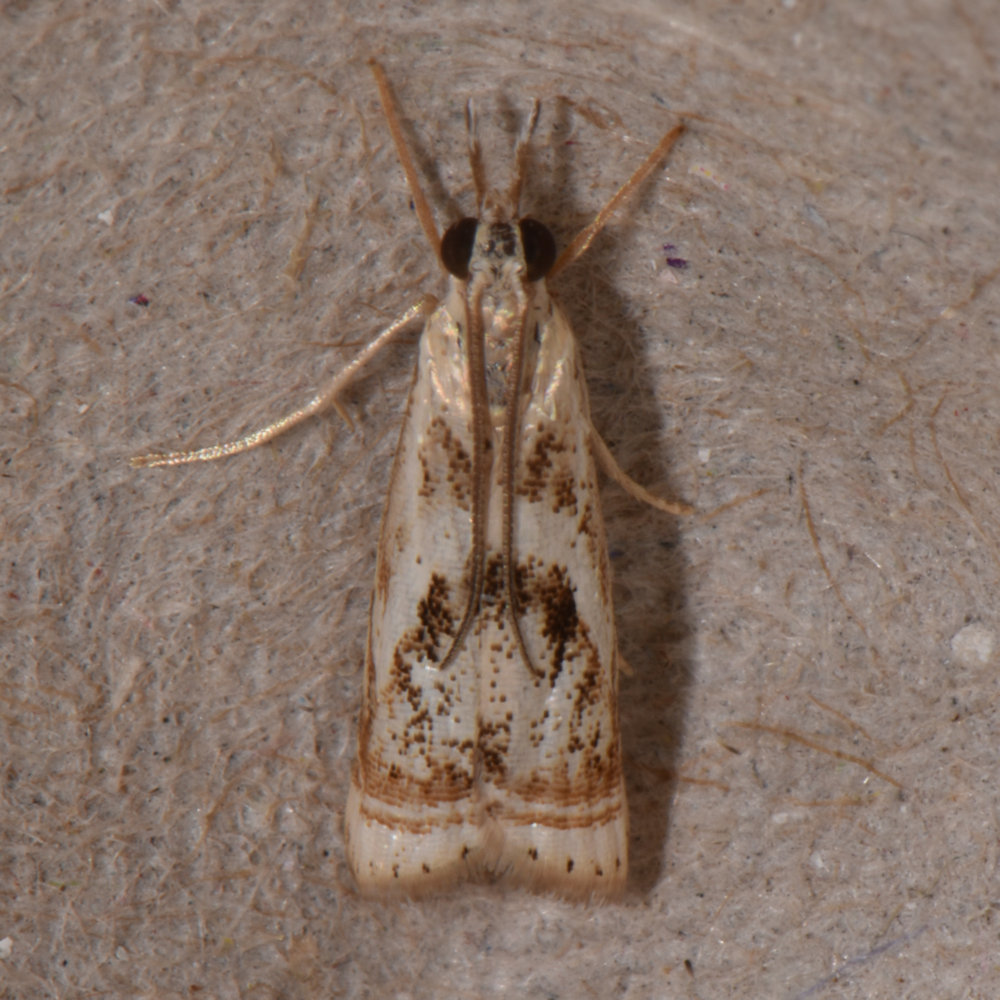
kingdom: Animalia
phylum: Arthropoda
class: Insecta
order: Lepidoptera
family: Crambidae
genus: Microcrambus
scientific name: Microcrambus elegans
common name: Elegant grass-veneer
